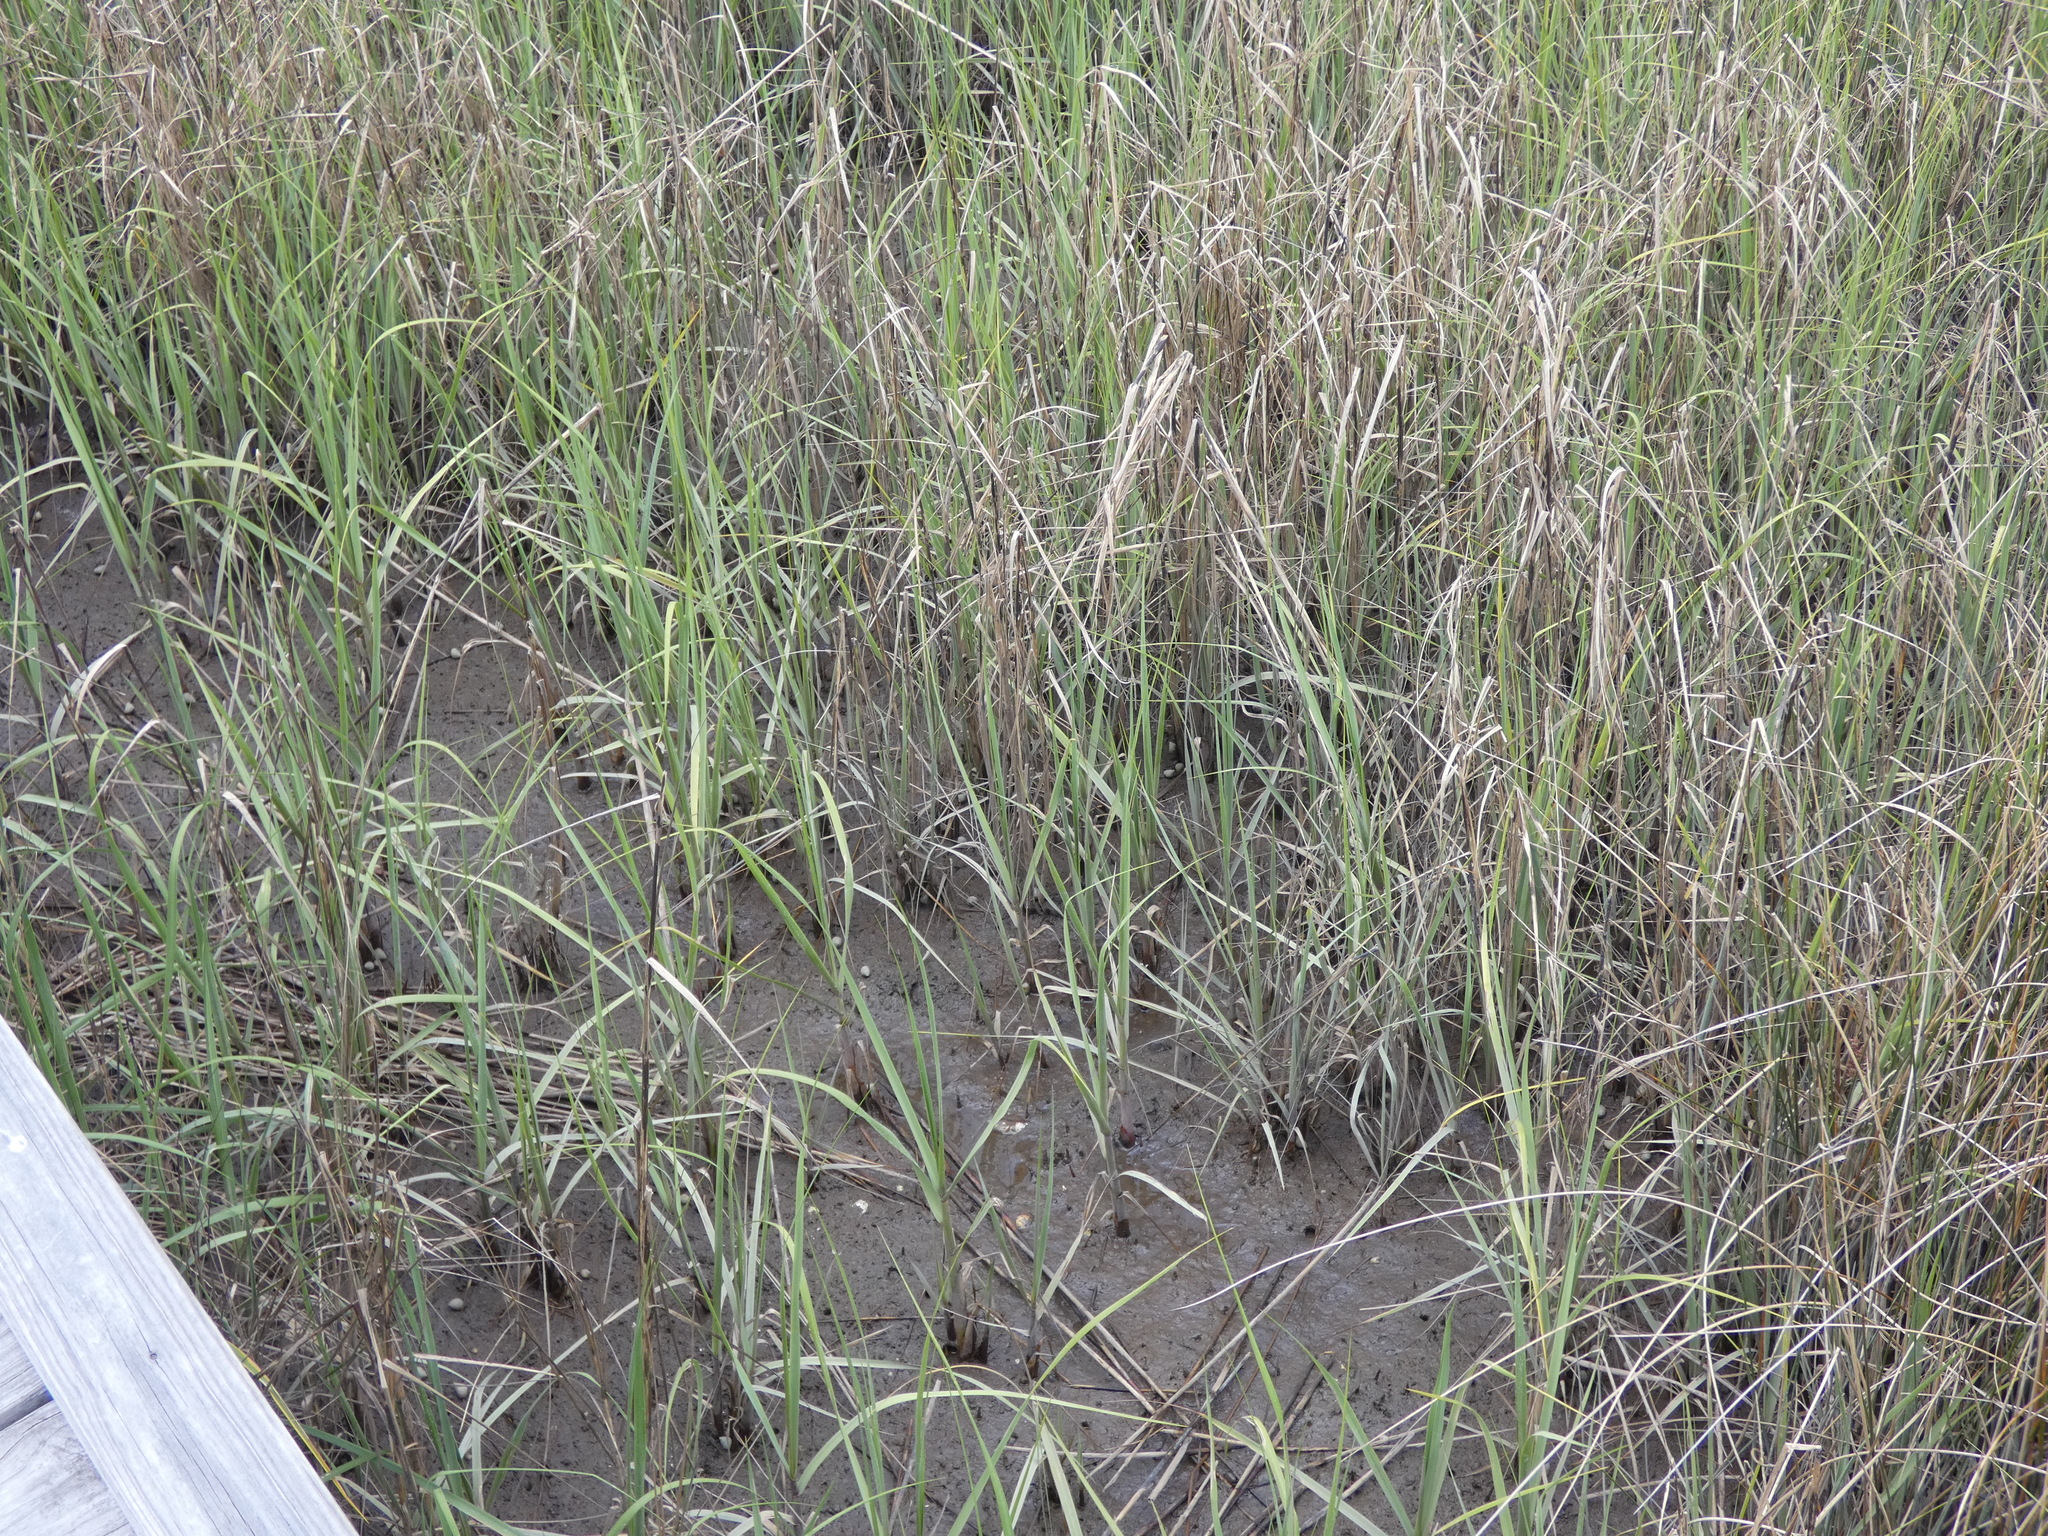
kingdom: Plantae
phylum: Tracheophyta
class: Liliopsida
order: Poales
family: Poaceae
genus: Sporobolus
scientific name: Sporobolus alterniflorus
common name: Atlantic cordgrass
